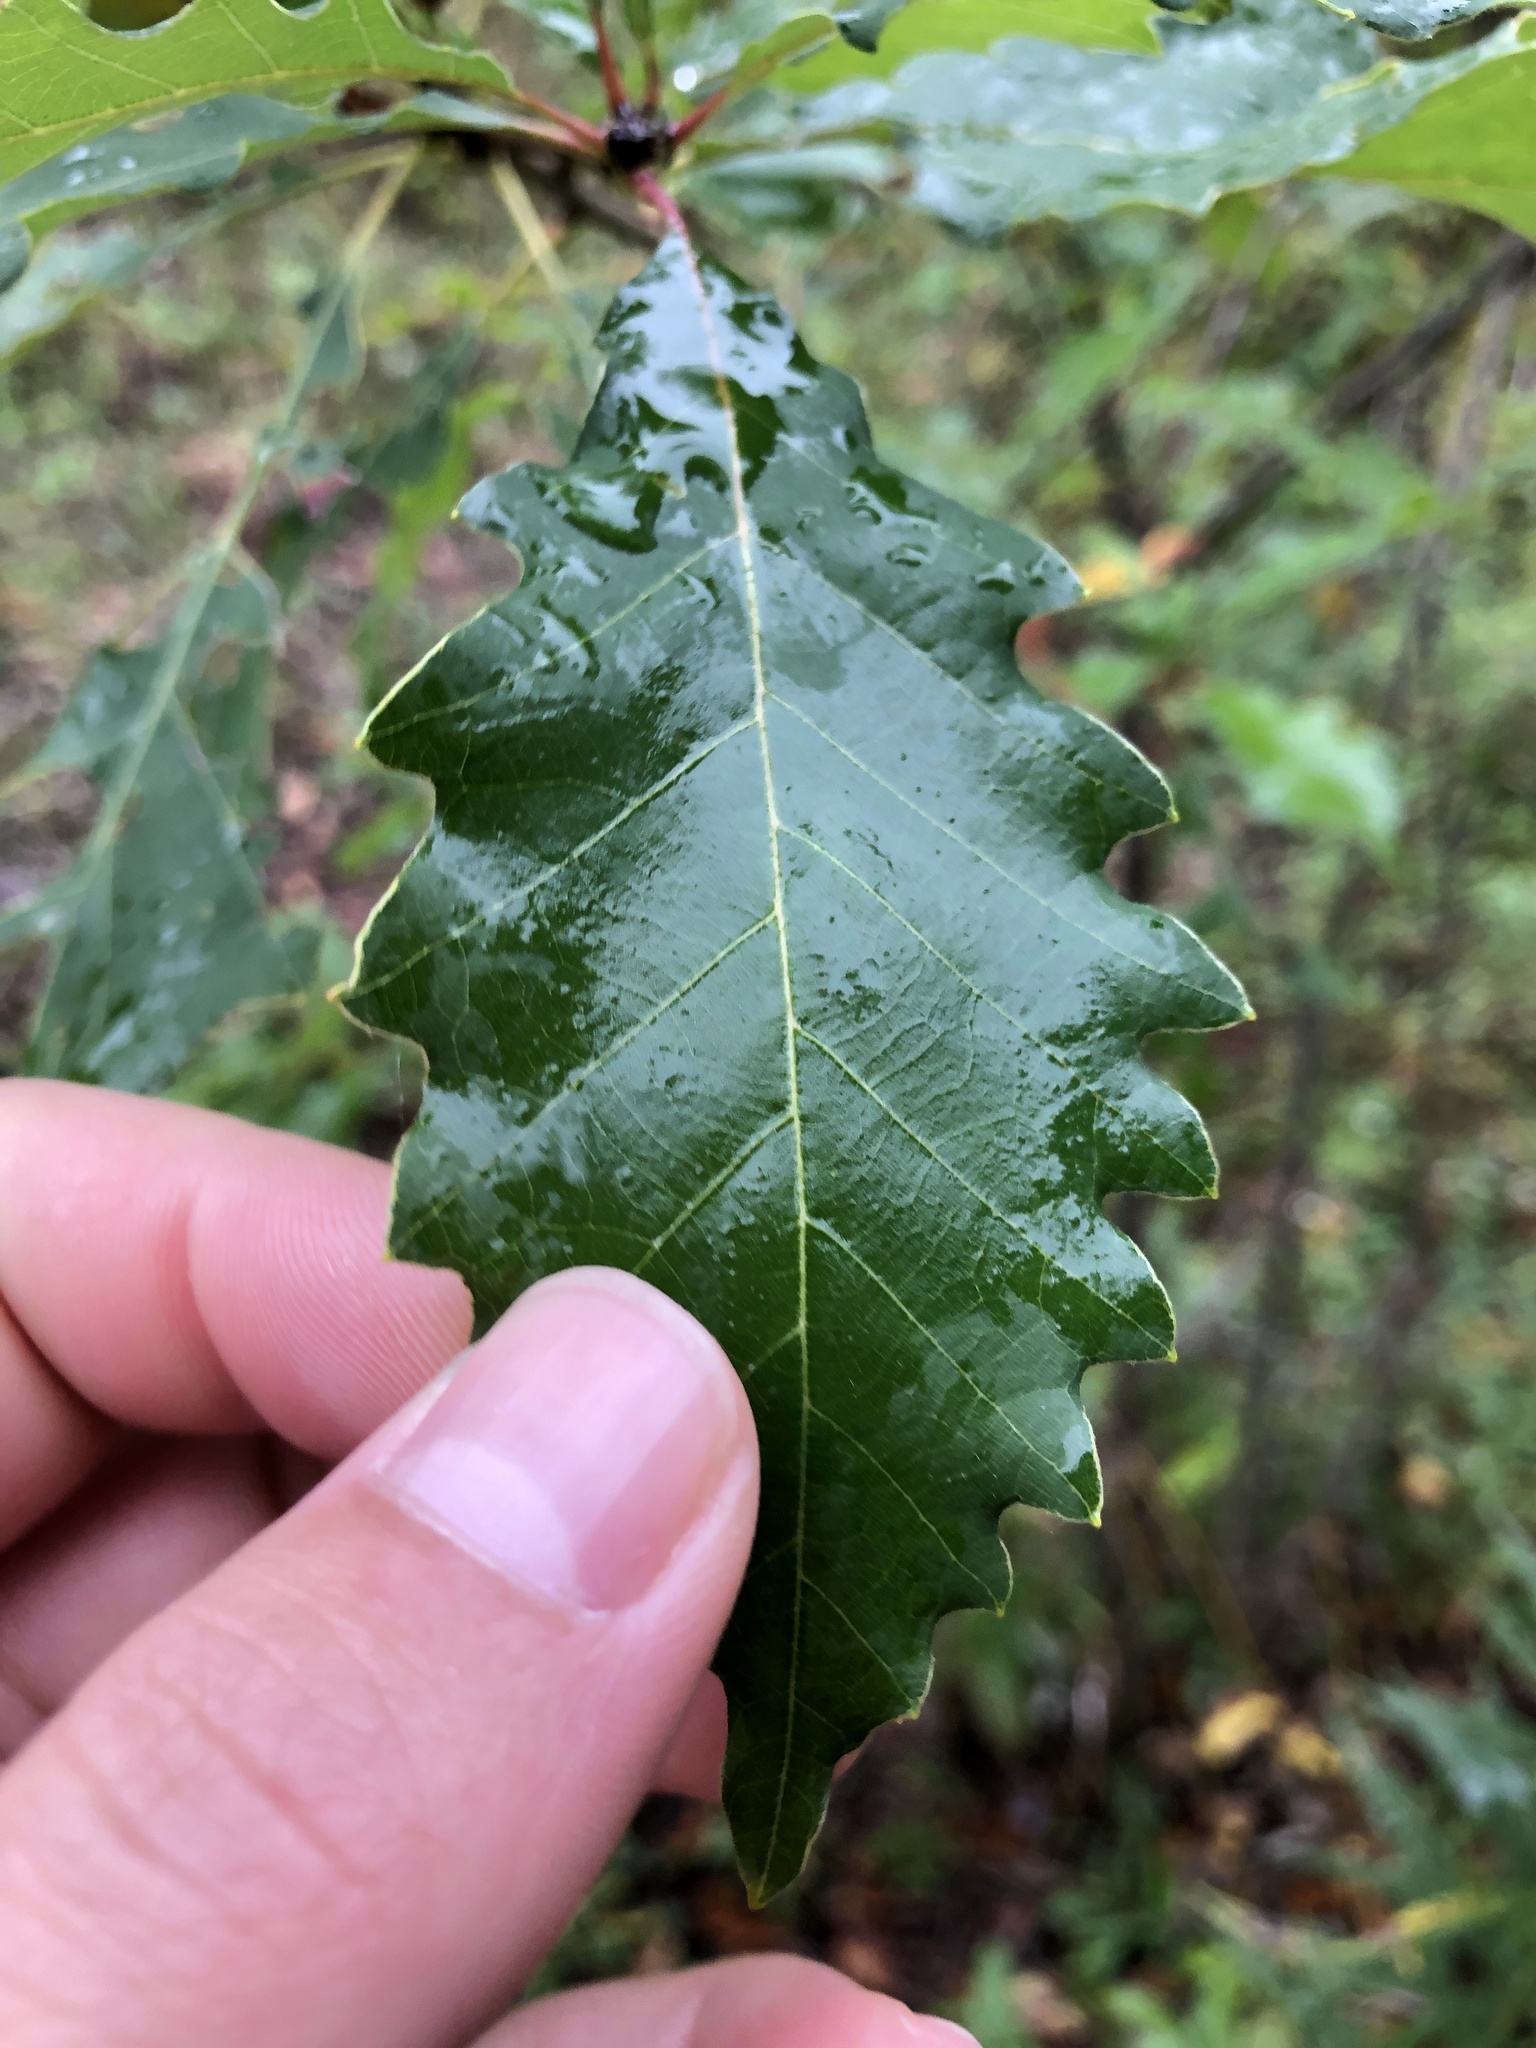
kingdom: Plantae
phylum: Tracheophyta
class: Magnoliopsida
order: Fagales
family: Fagaceae
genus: Quercus
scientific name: Quercus muehlenbergii
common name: Chinkapin oak
